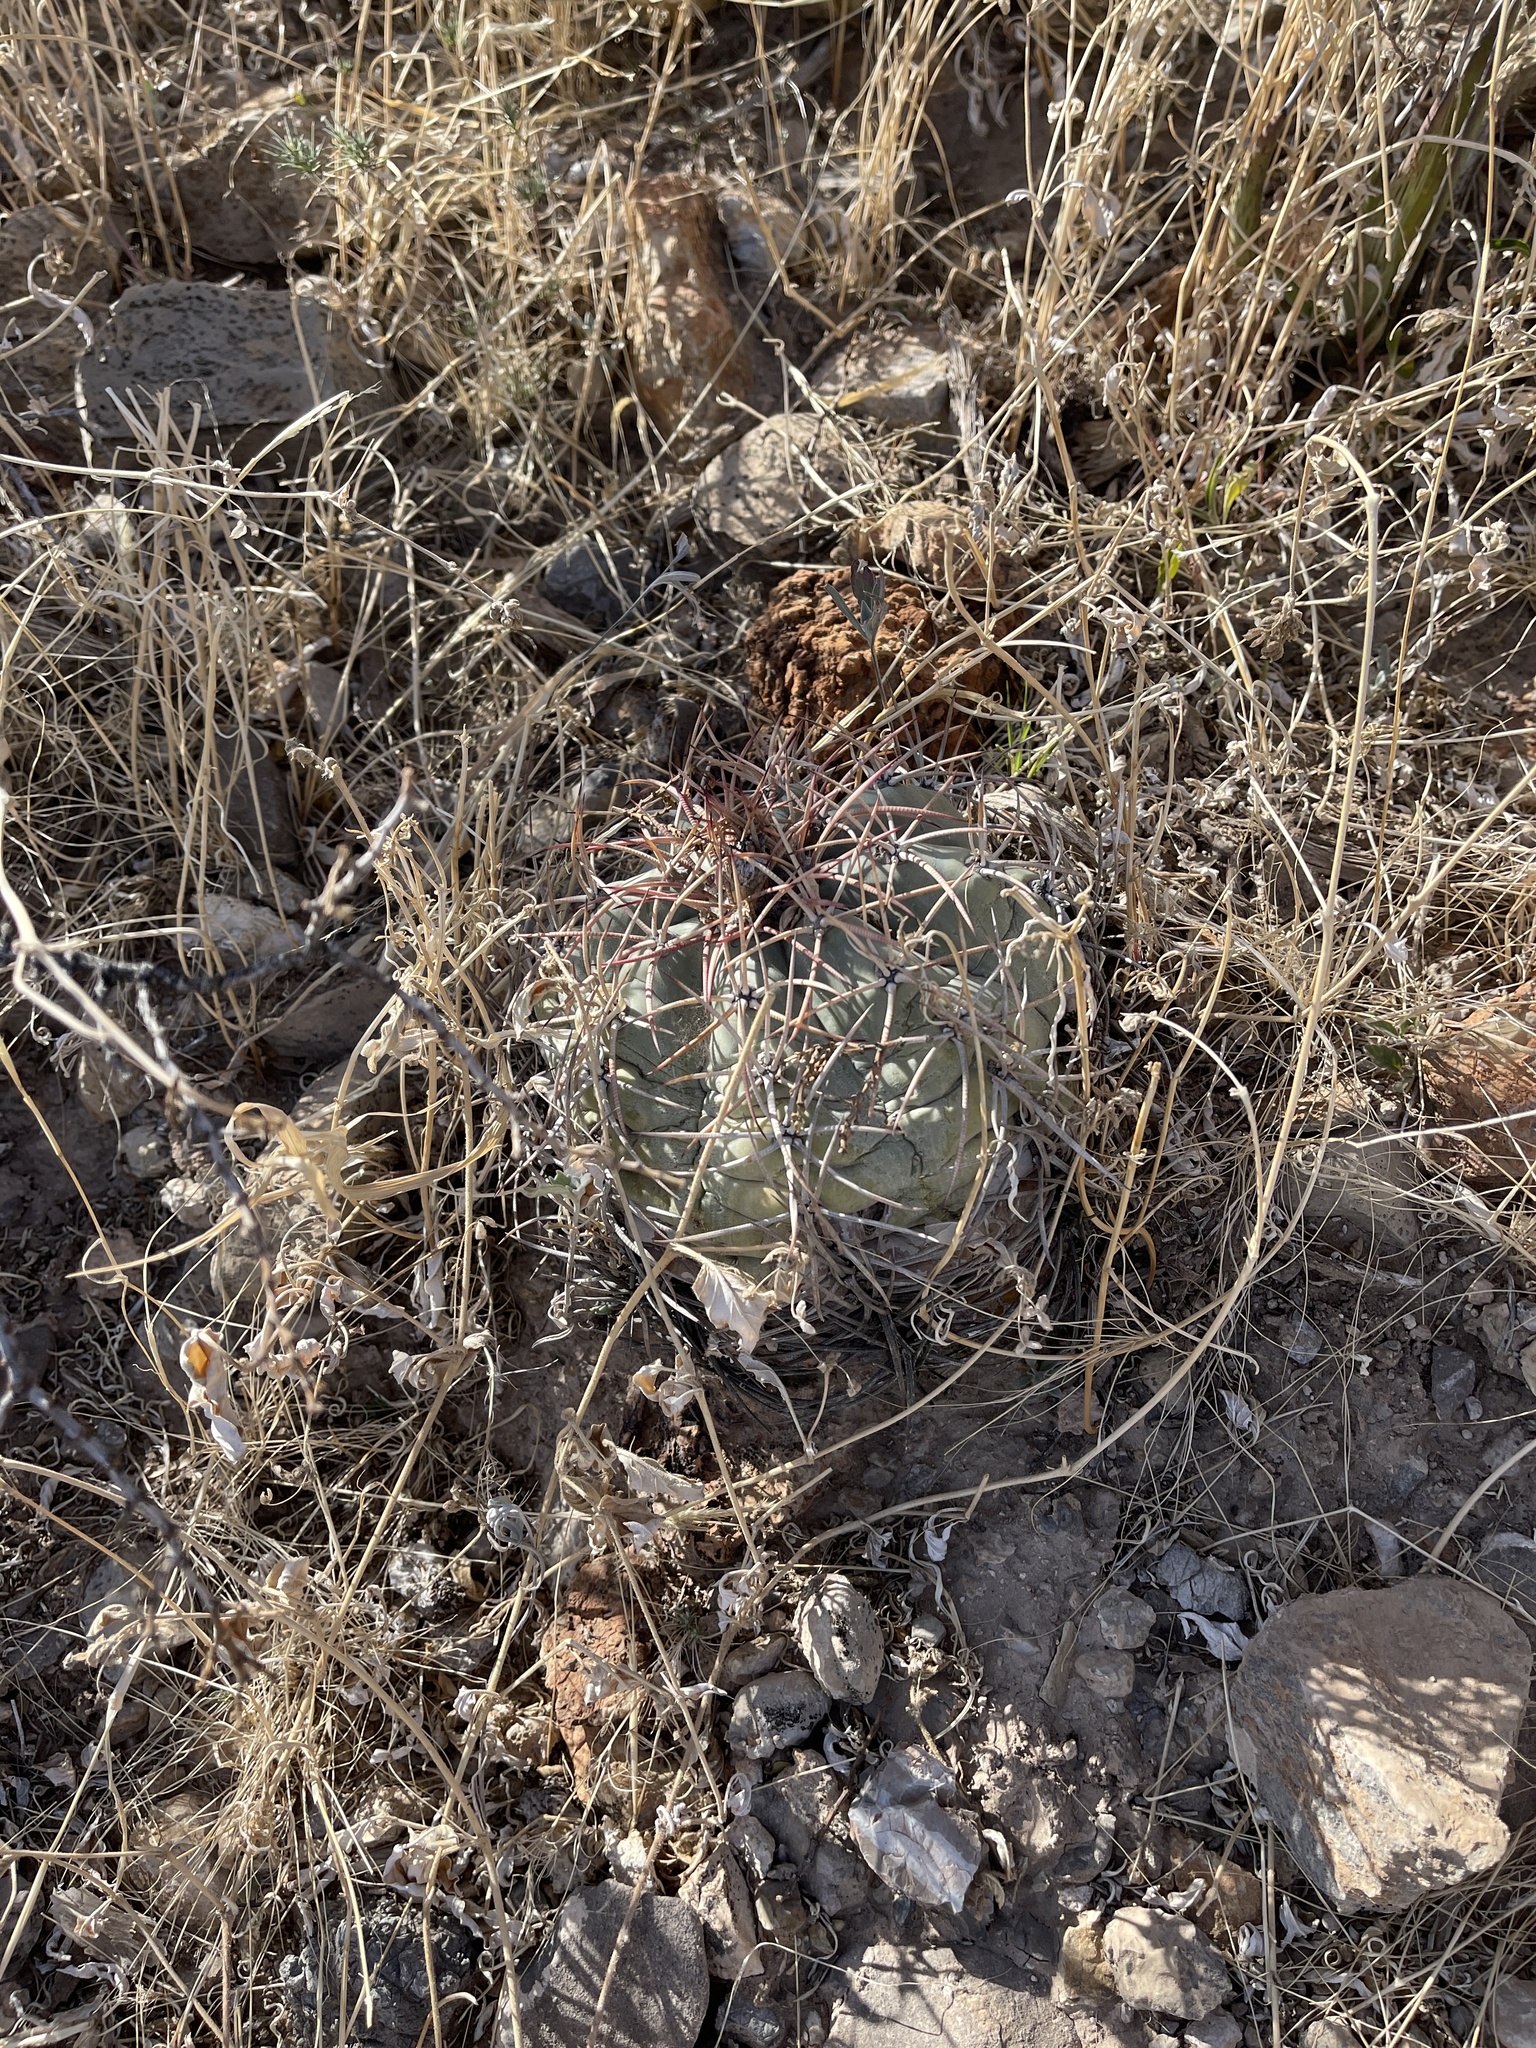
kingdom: Plantae
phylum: Tracheophyta
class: Magnoliopsida
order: Caryophyllales
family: Cactaceae
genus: Echinocactus
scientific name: Echinocactus horizonthalonius
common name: Devilshead
